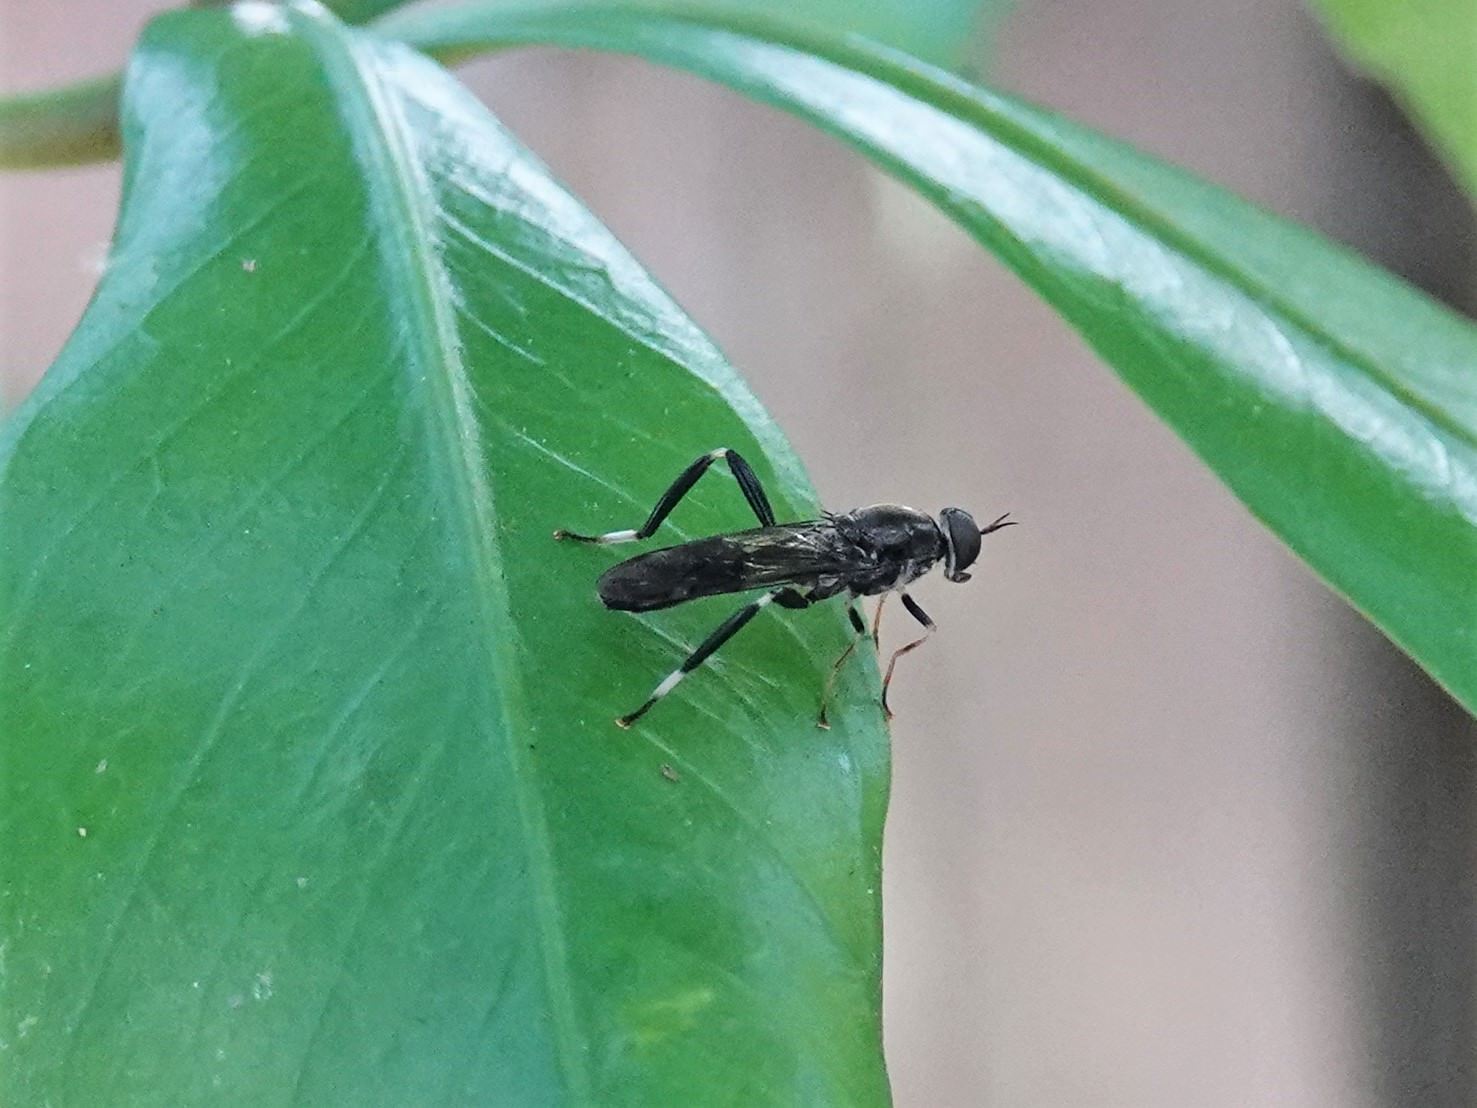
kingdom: Animalia
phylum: Arthropoda
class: Insecta
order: Diptera
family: Stratiomyidae
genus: Exaireta
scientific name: Exaireta spinigera
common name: Blue soldier fly
